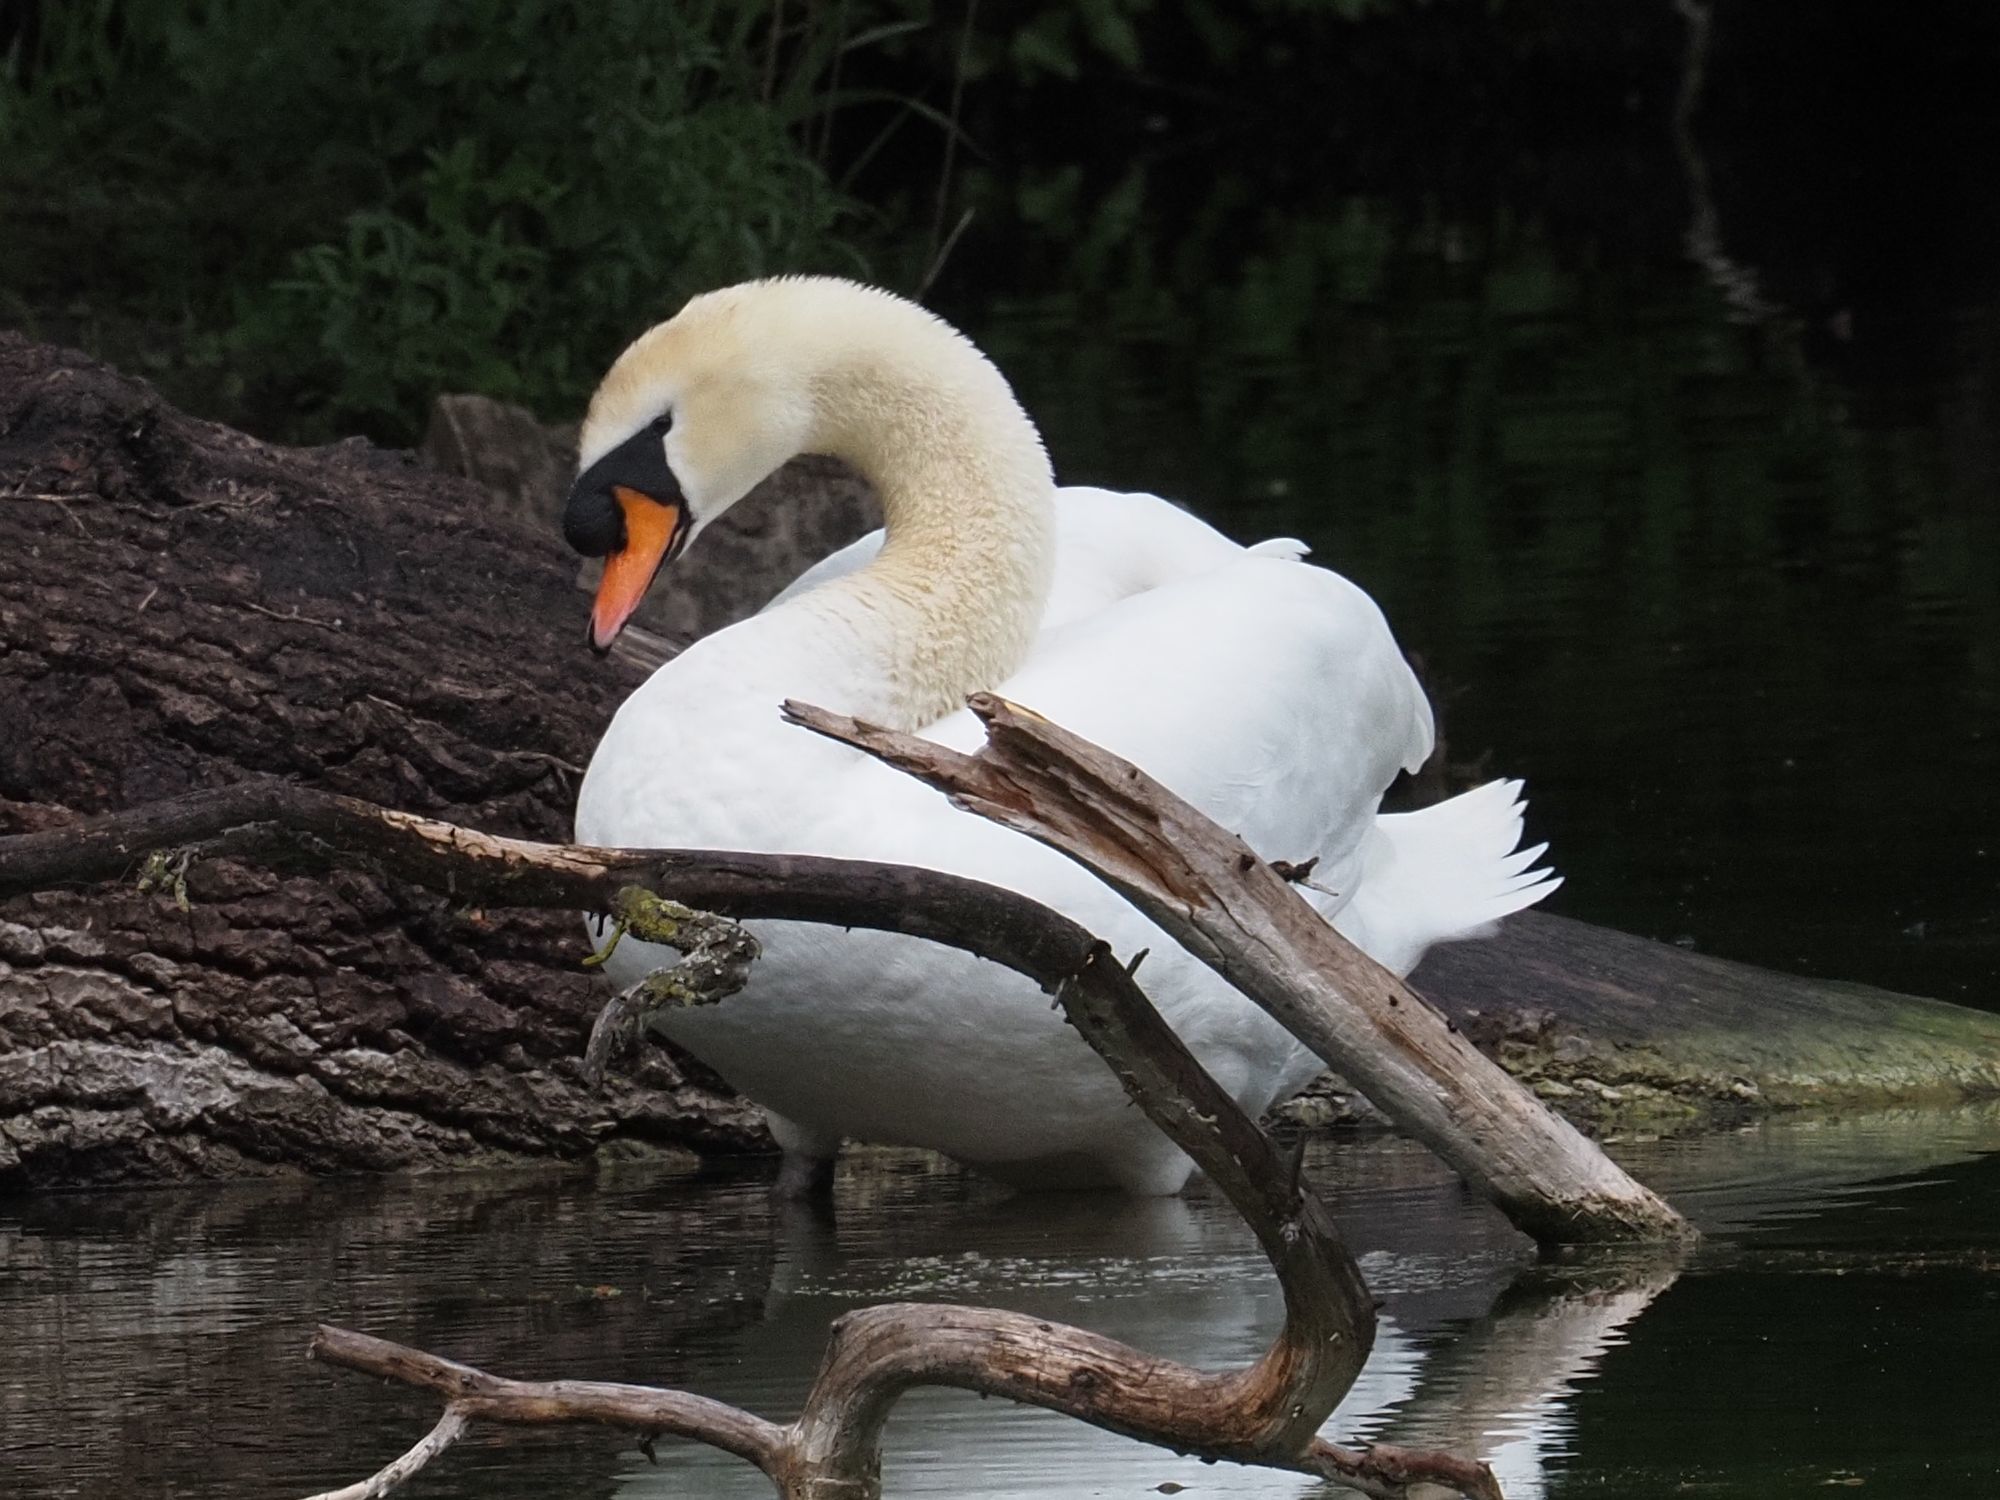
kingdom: Animalia
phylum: Chordata
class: Aves
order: Anseriformes
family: Anatidae
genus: Cygnus
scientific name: Cygnus olor
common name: Mute swan
